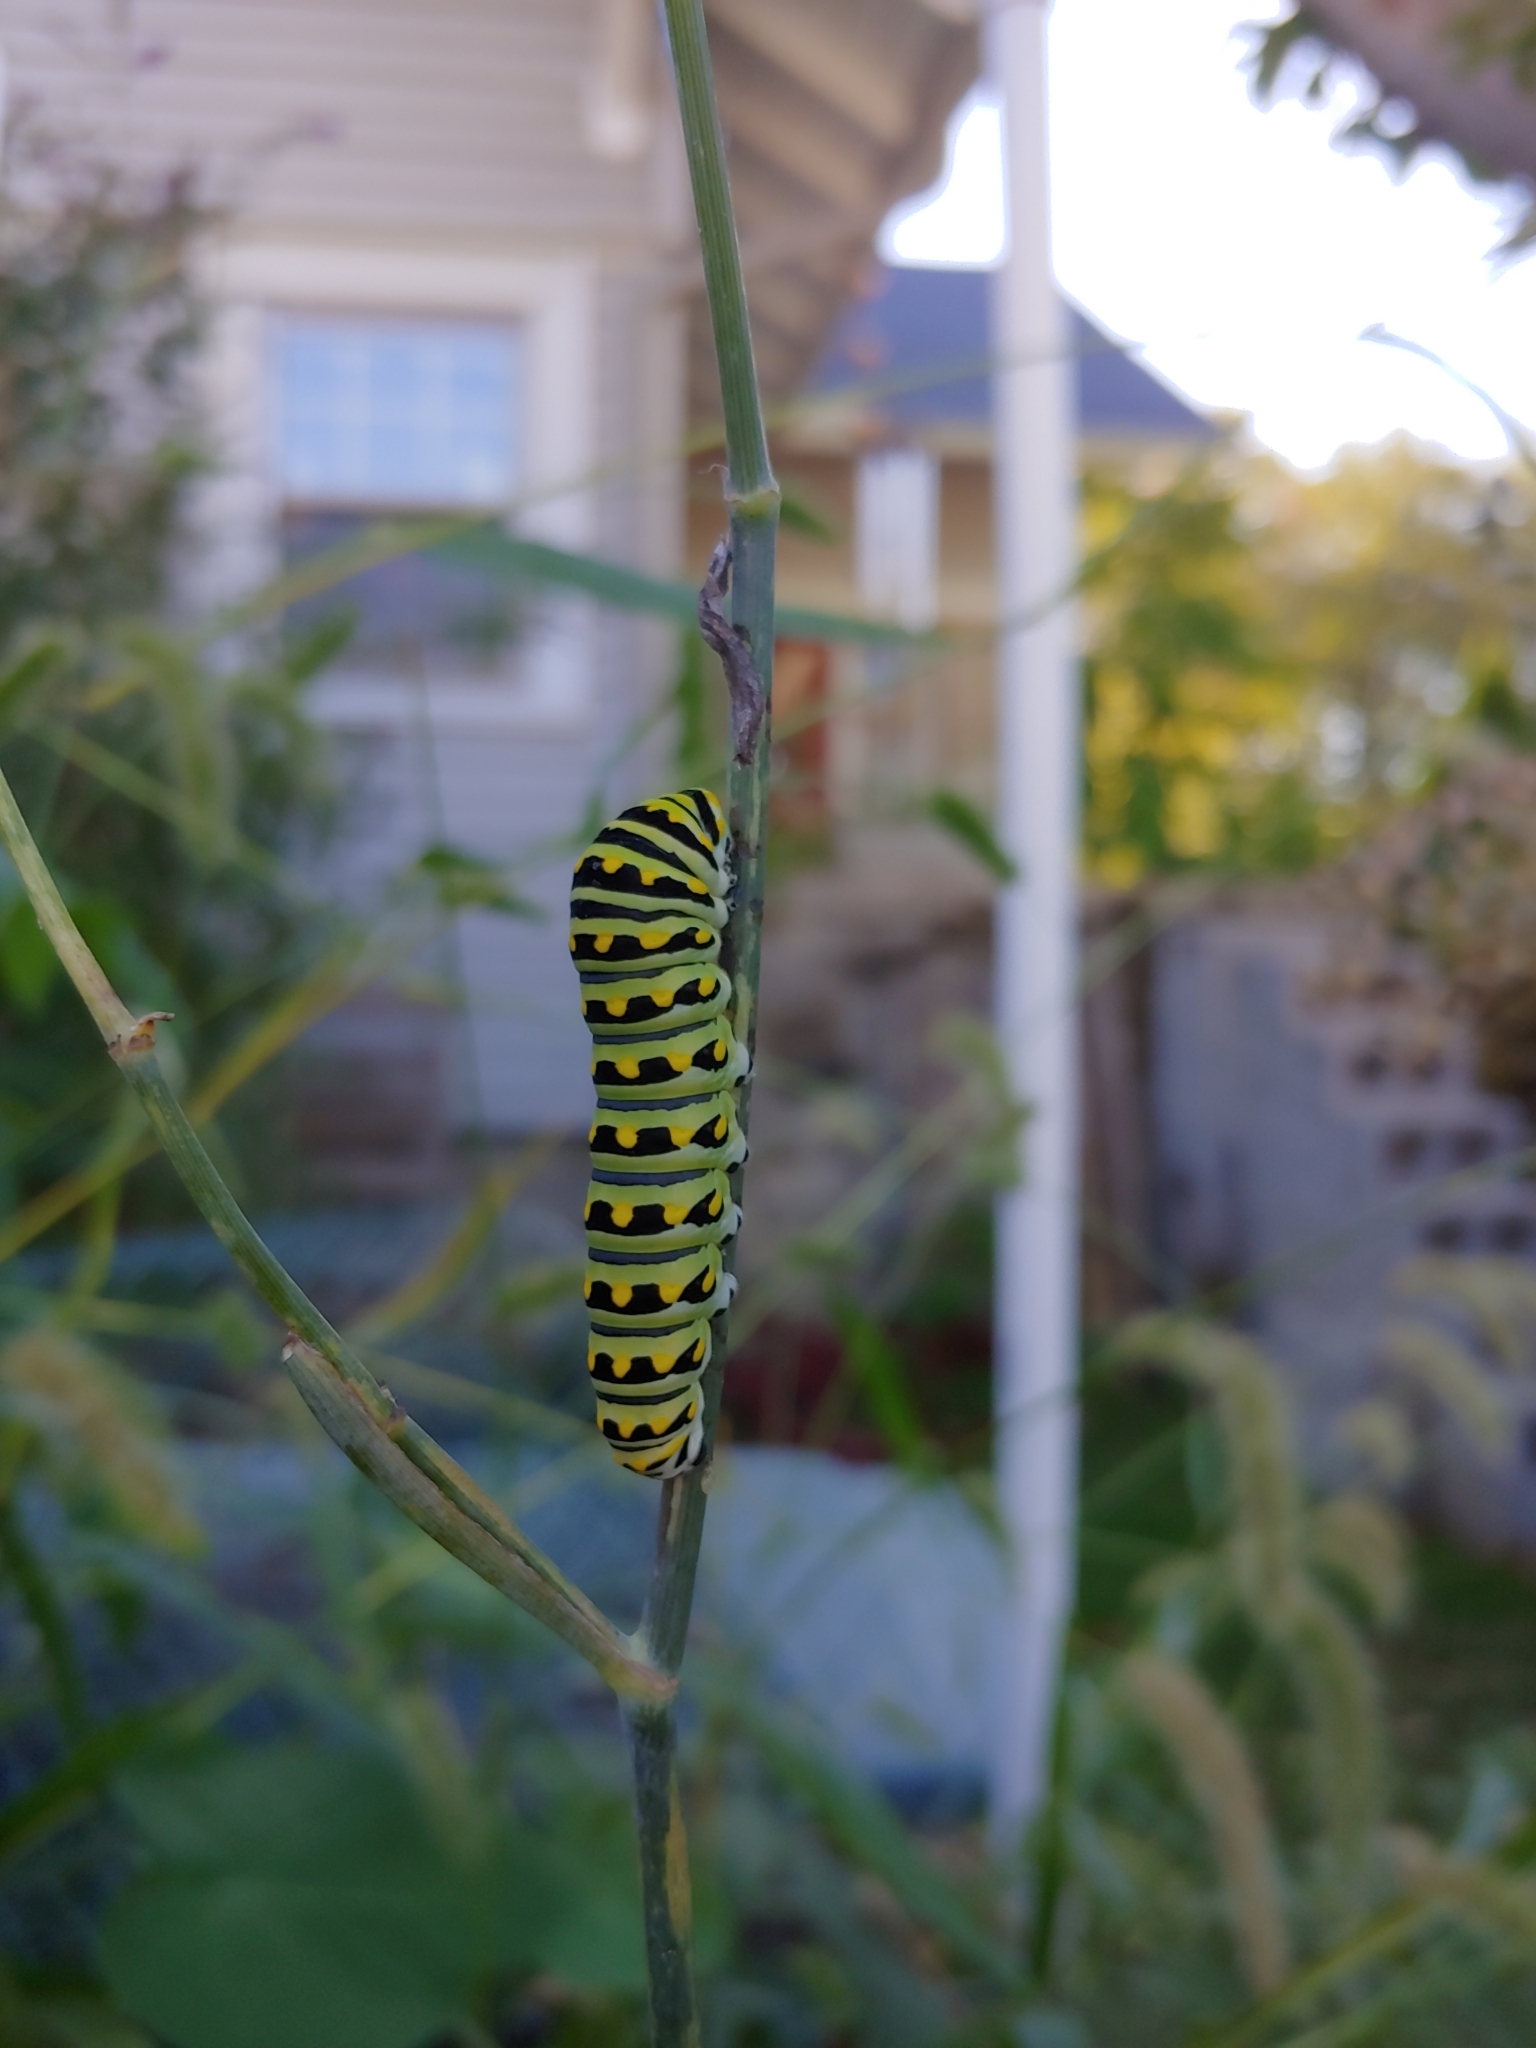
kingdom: Animalia
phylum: Arthropoda
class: Insecta
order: Lepidoptera
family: Papilionidae
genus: Papilio
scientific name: Papilio polyxenes
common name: Black swallowtail
